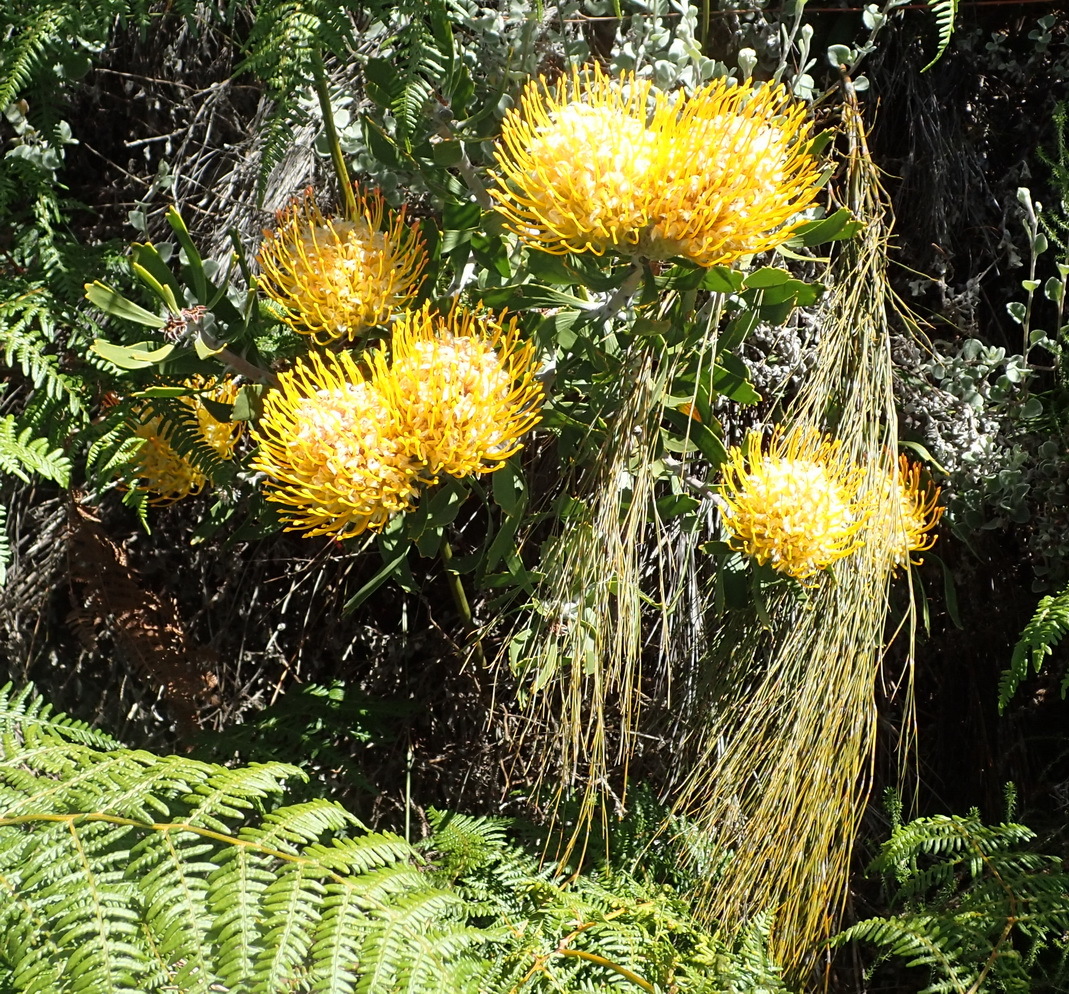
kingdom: Plantae
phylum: Tracheophyta
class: Magnoliopsida
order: Proteales
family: Proteaceae
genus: Leucospermum
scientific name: Leucospermum cuneiforme
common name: Common pincushion
